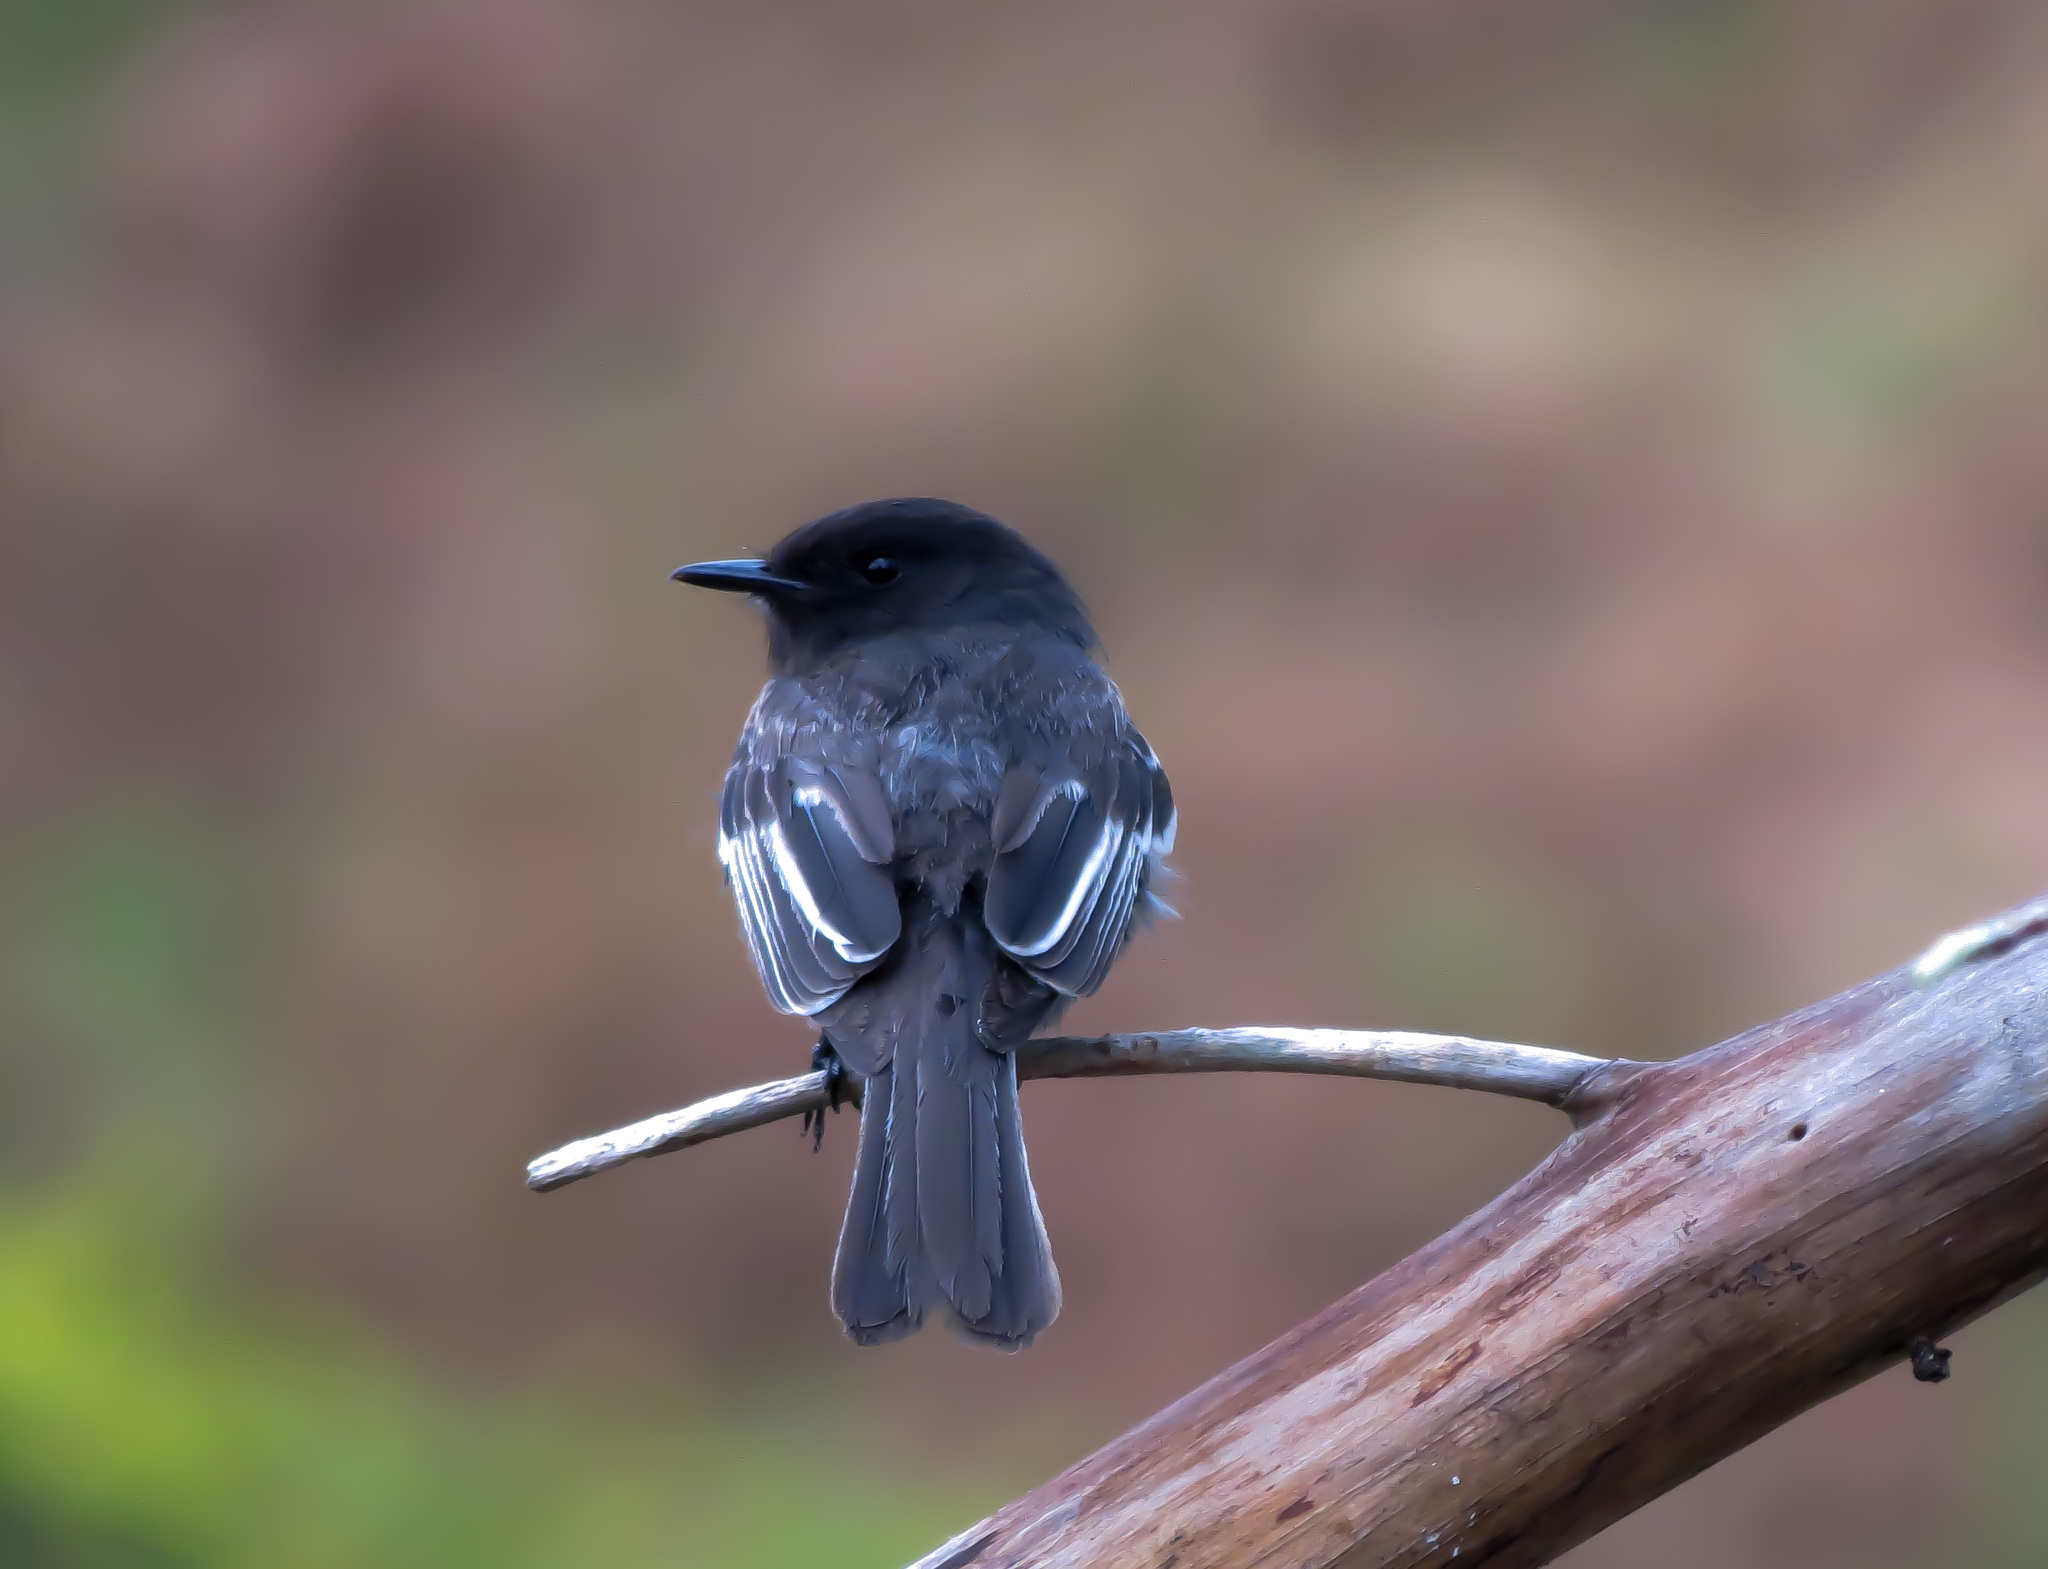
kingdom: Animalia
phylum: Chordata
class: Aves
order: Passeriformes
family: Tyrannidae
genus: Sayornis
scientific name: Sayornis nigricans
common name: Black phoebe
